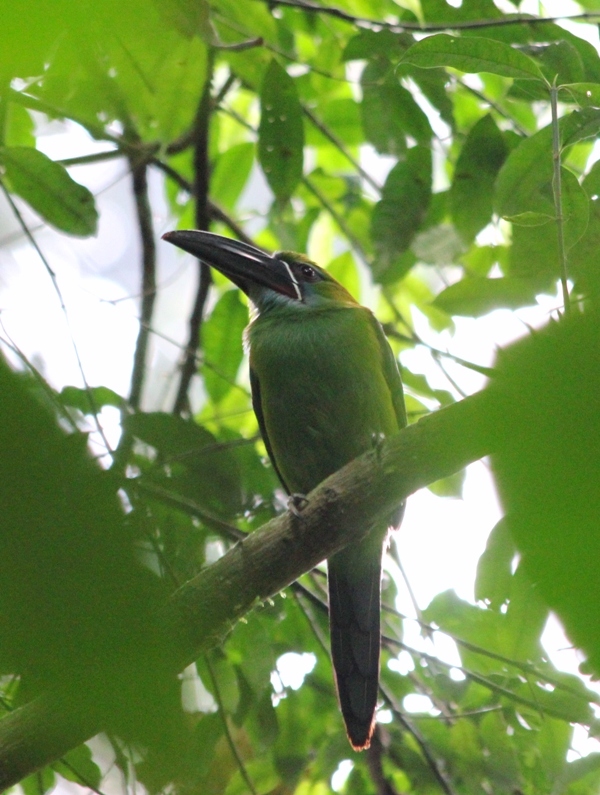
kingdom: Animalia
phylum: Chordata
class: Aves
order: Piciformes
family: Ramphastidae
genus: Aulacorhynchus
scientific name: Aulacorhynchus derbianus
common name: Chestnut-tipped toucanet
